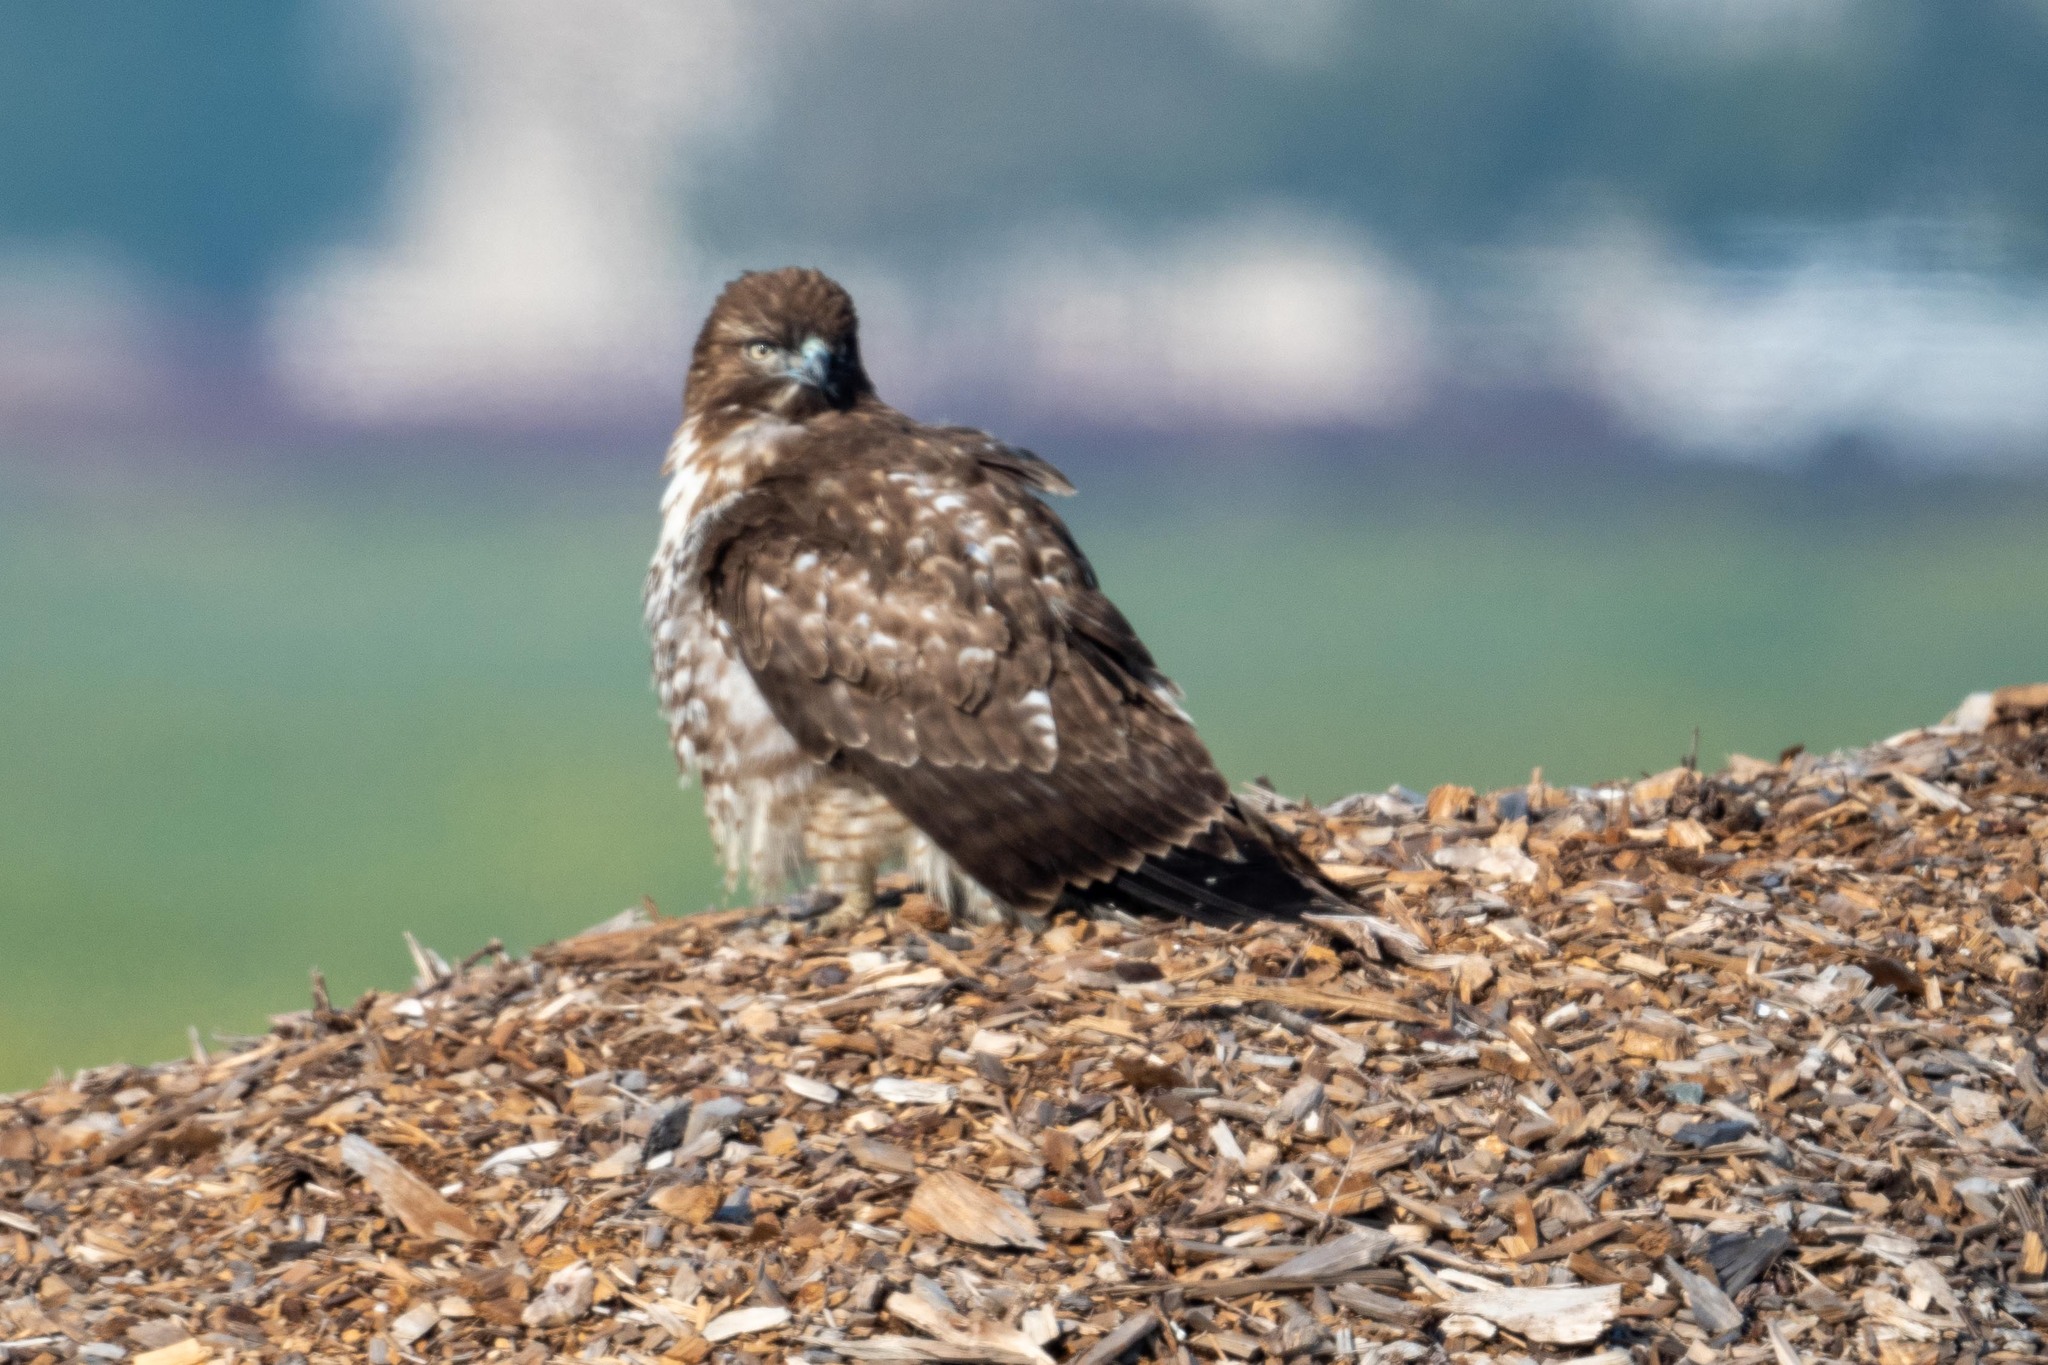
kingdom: Animalia
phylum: Chordata
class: Aves
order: Accipitriformes
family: Accipitridae
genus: Buteo
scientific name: Buteo jamaicensis
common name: Red-tailed hawk
